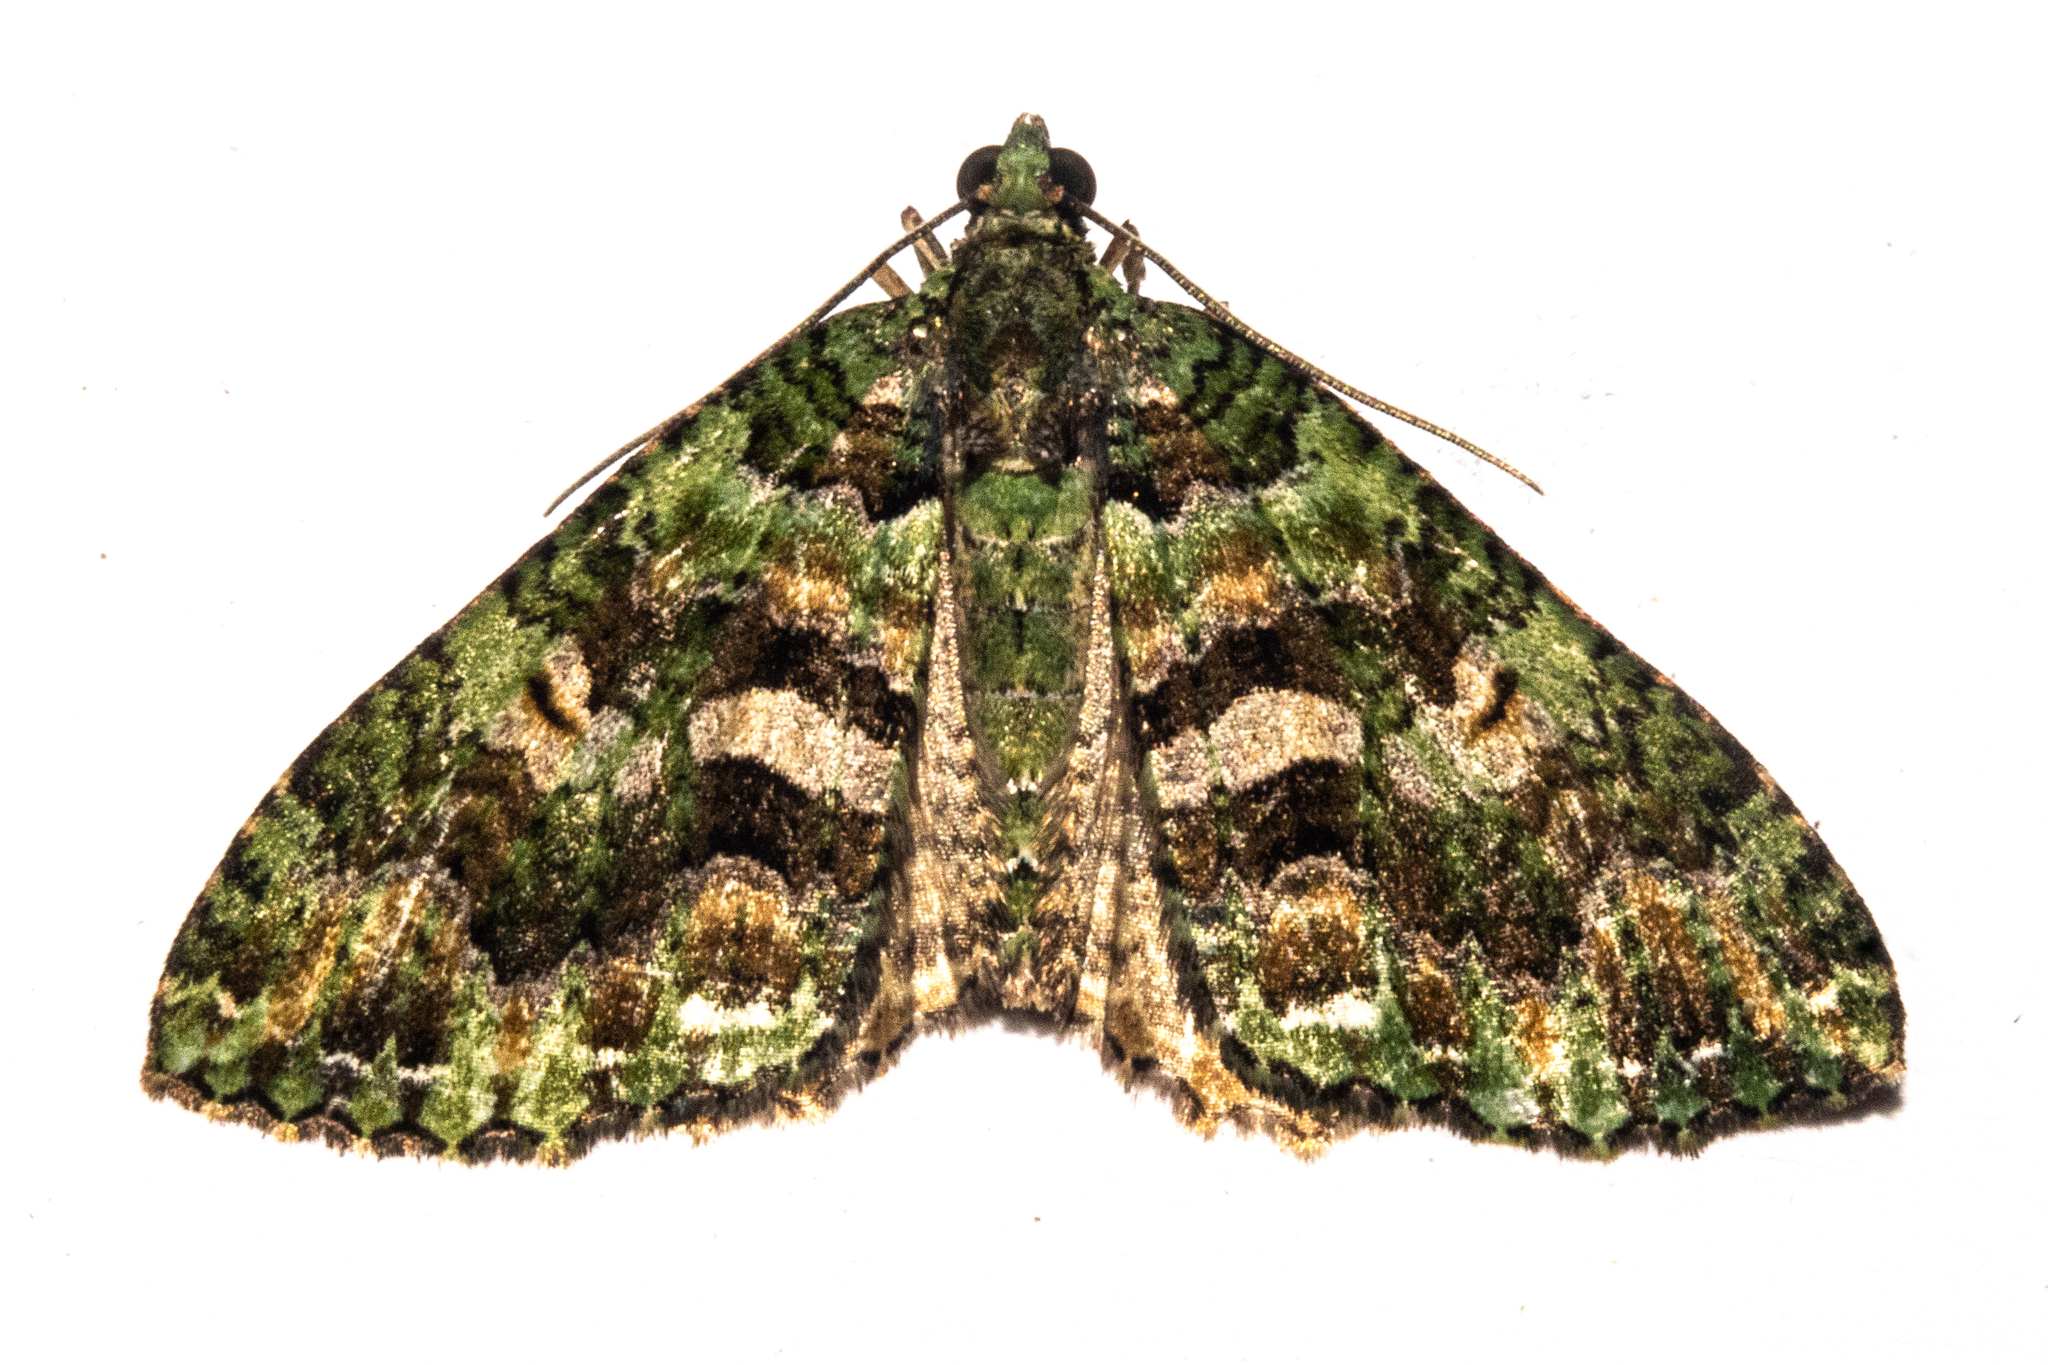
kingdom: Animalia
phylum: Arthropoda
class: Insecta
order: Lepidoptera
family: Geometridae
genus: Austrocidaria
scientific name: Austrocidaria similata
